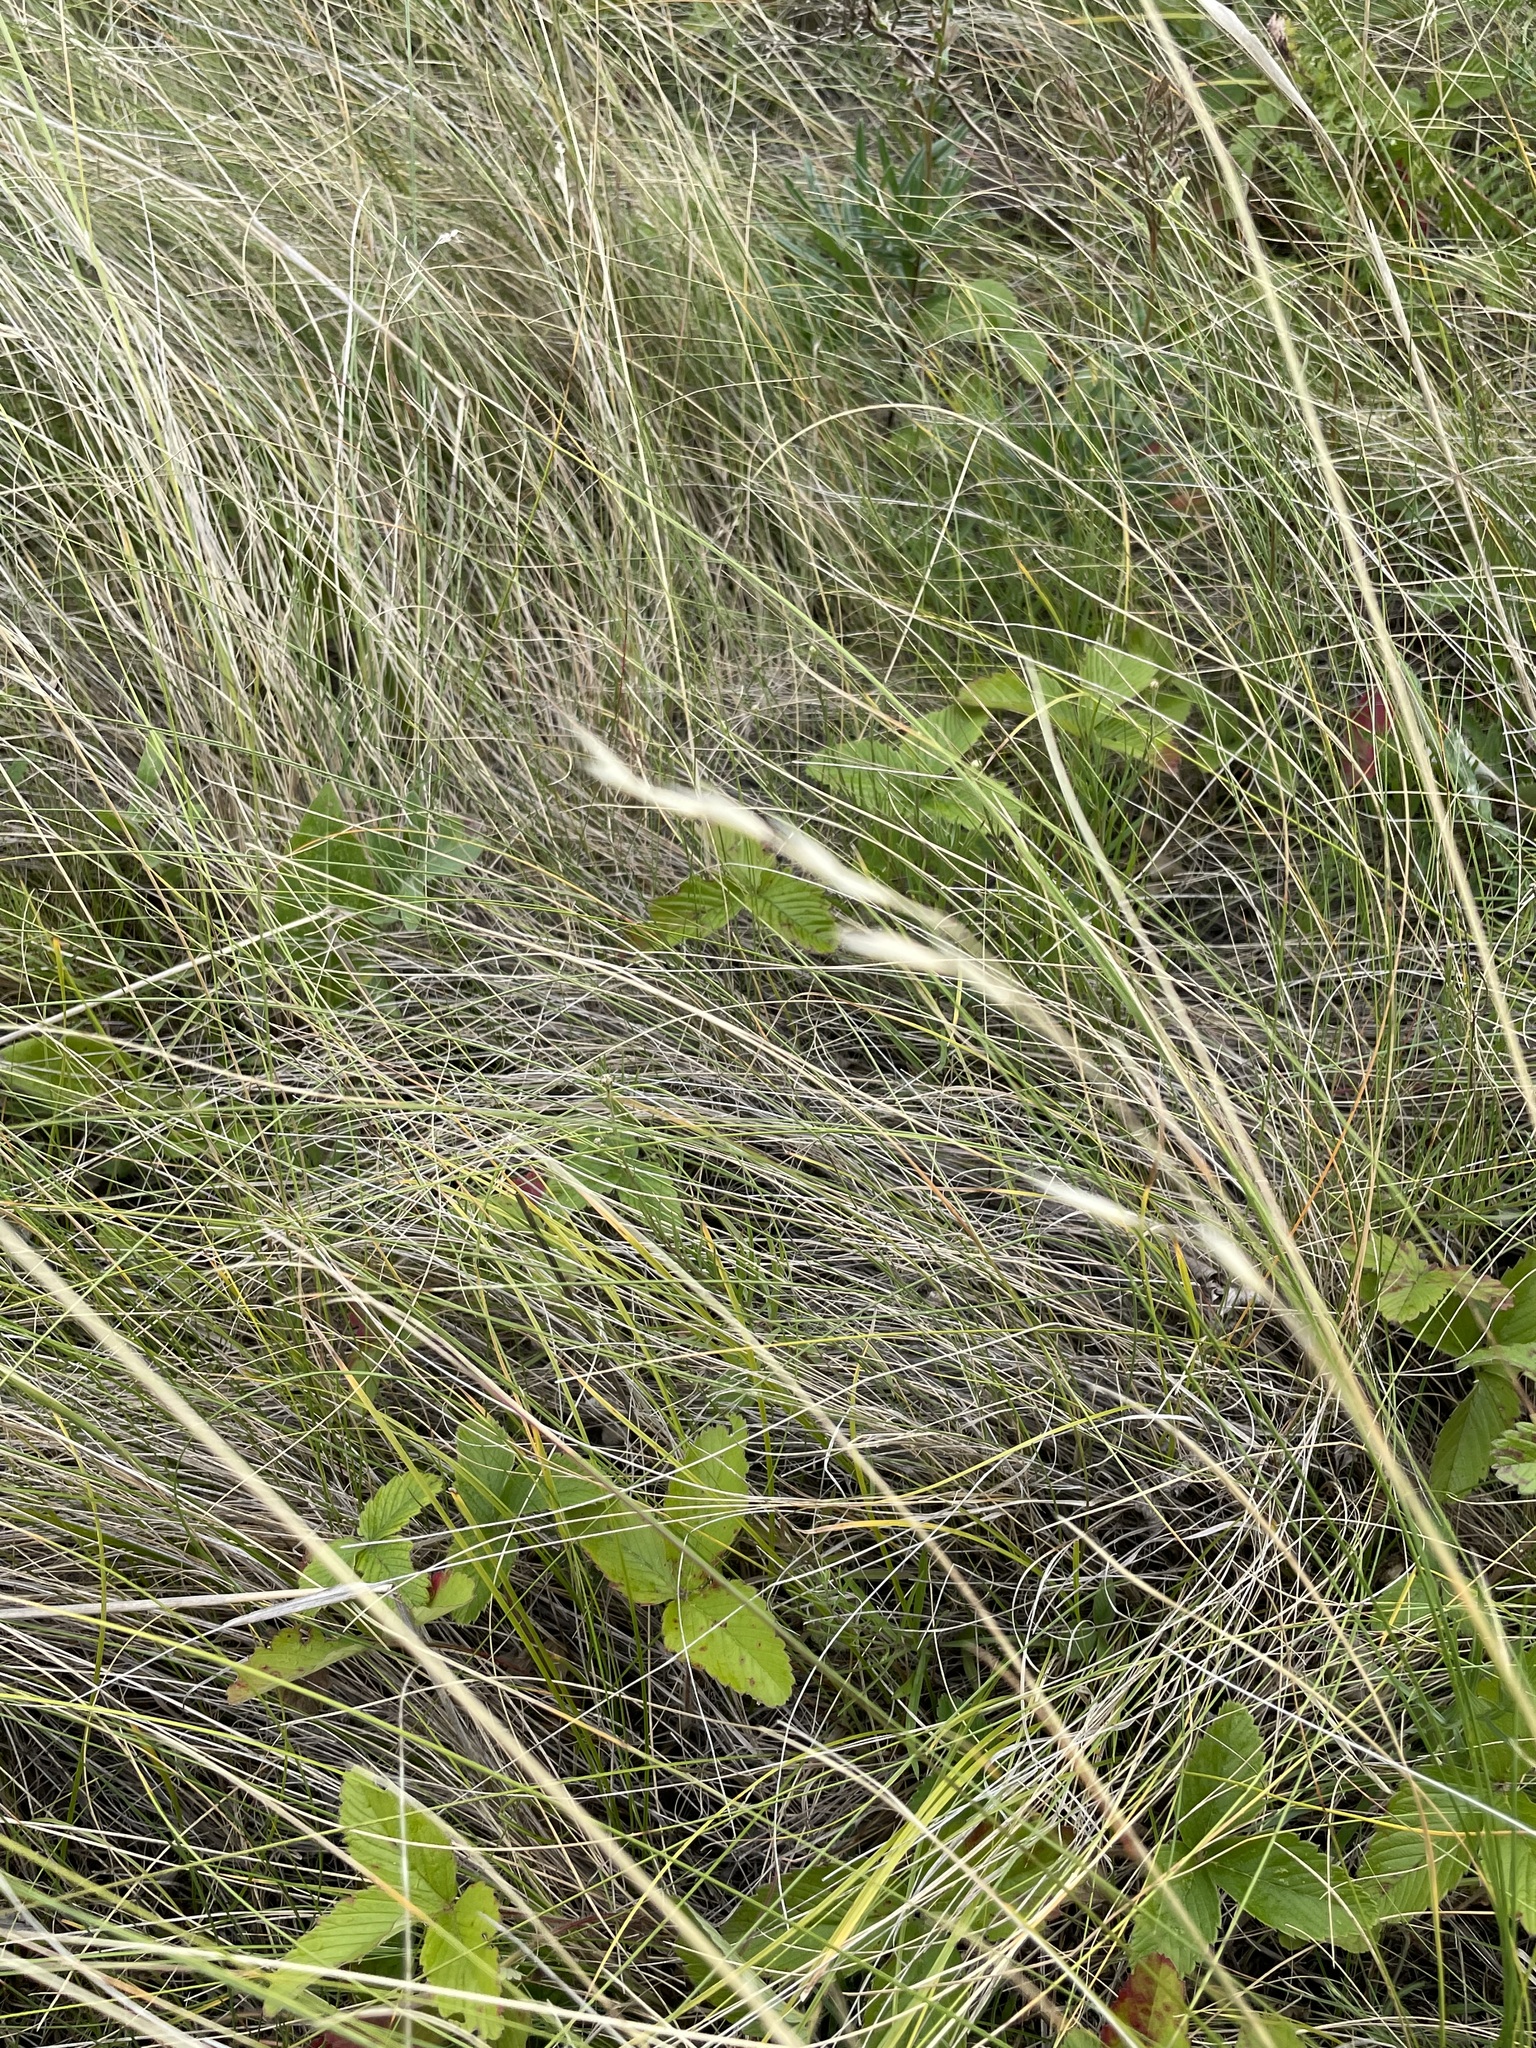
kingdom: Plantae
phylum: Tracheophyta
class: Liliopsida
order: Poales
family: Poaceae
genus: Helictotrichon
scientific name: Helictotrichon desertorum
